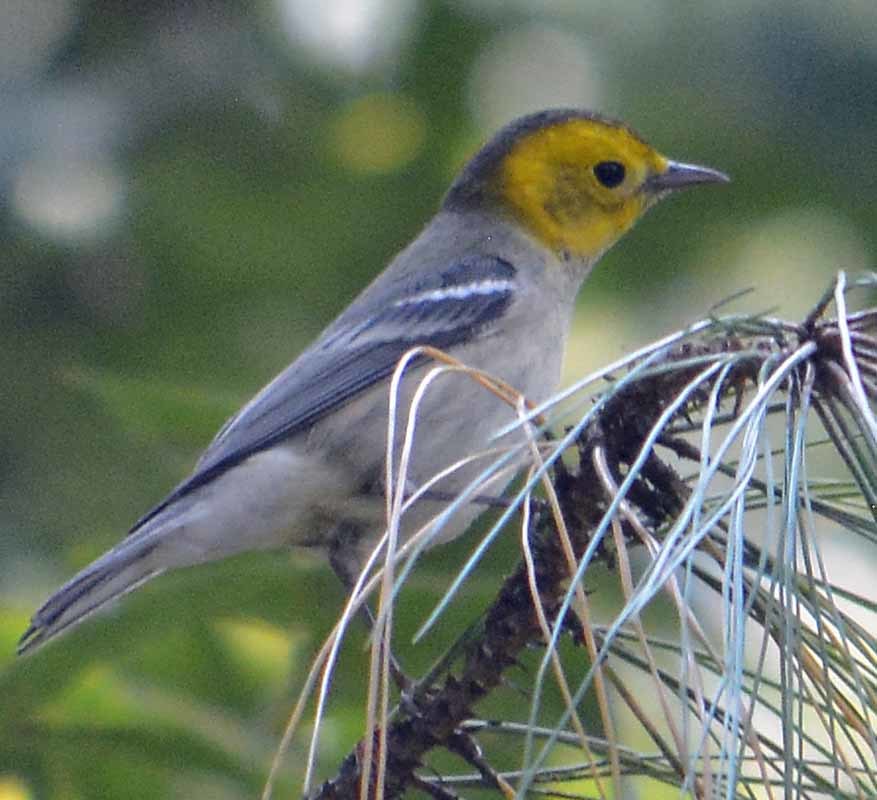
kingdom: Animalia
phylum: Chordata
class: Aves
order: Passeriformes
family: Parulidae
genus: Setophaga
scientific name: Setophaga occidentalis
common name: Hermit warbler
